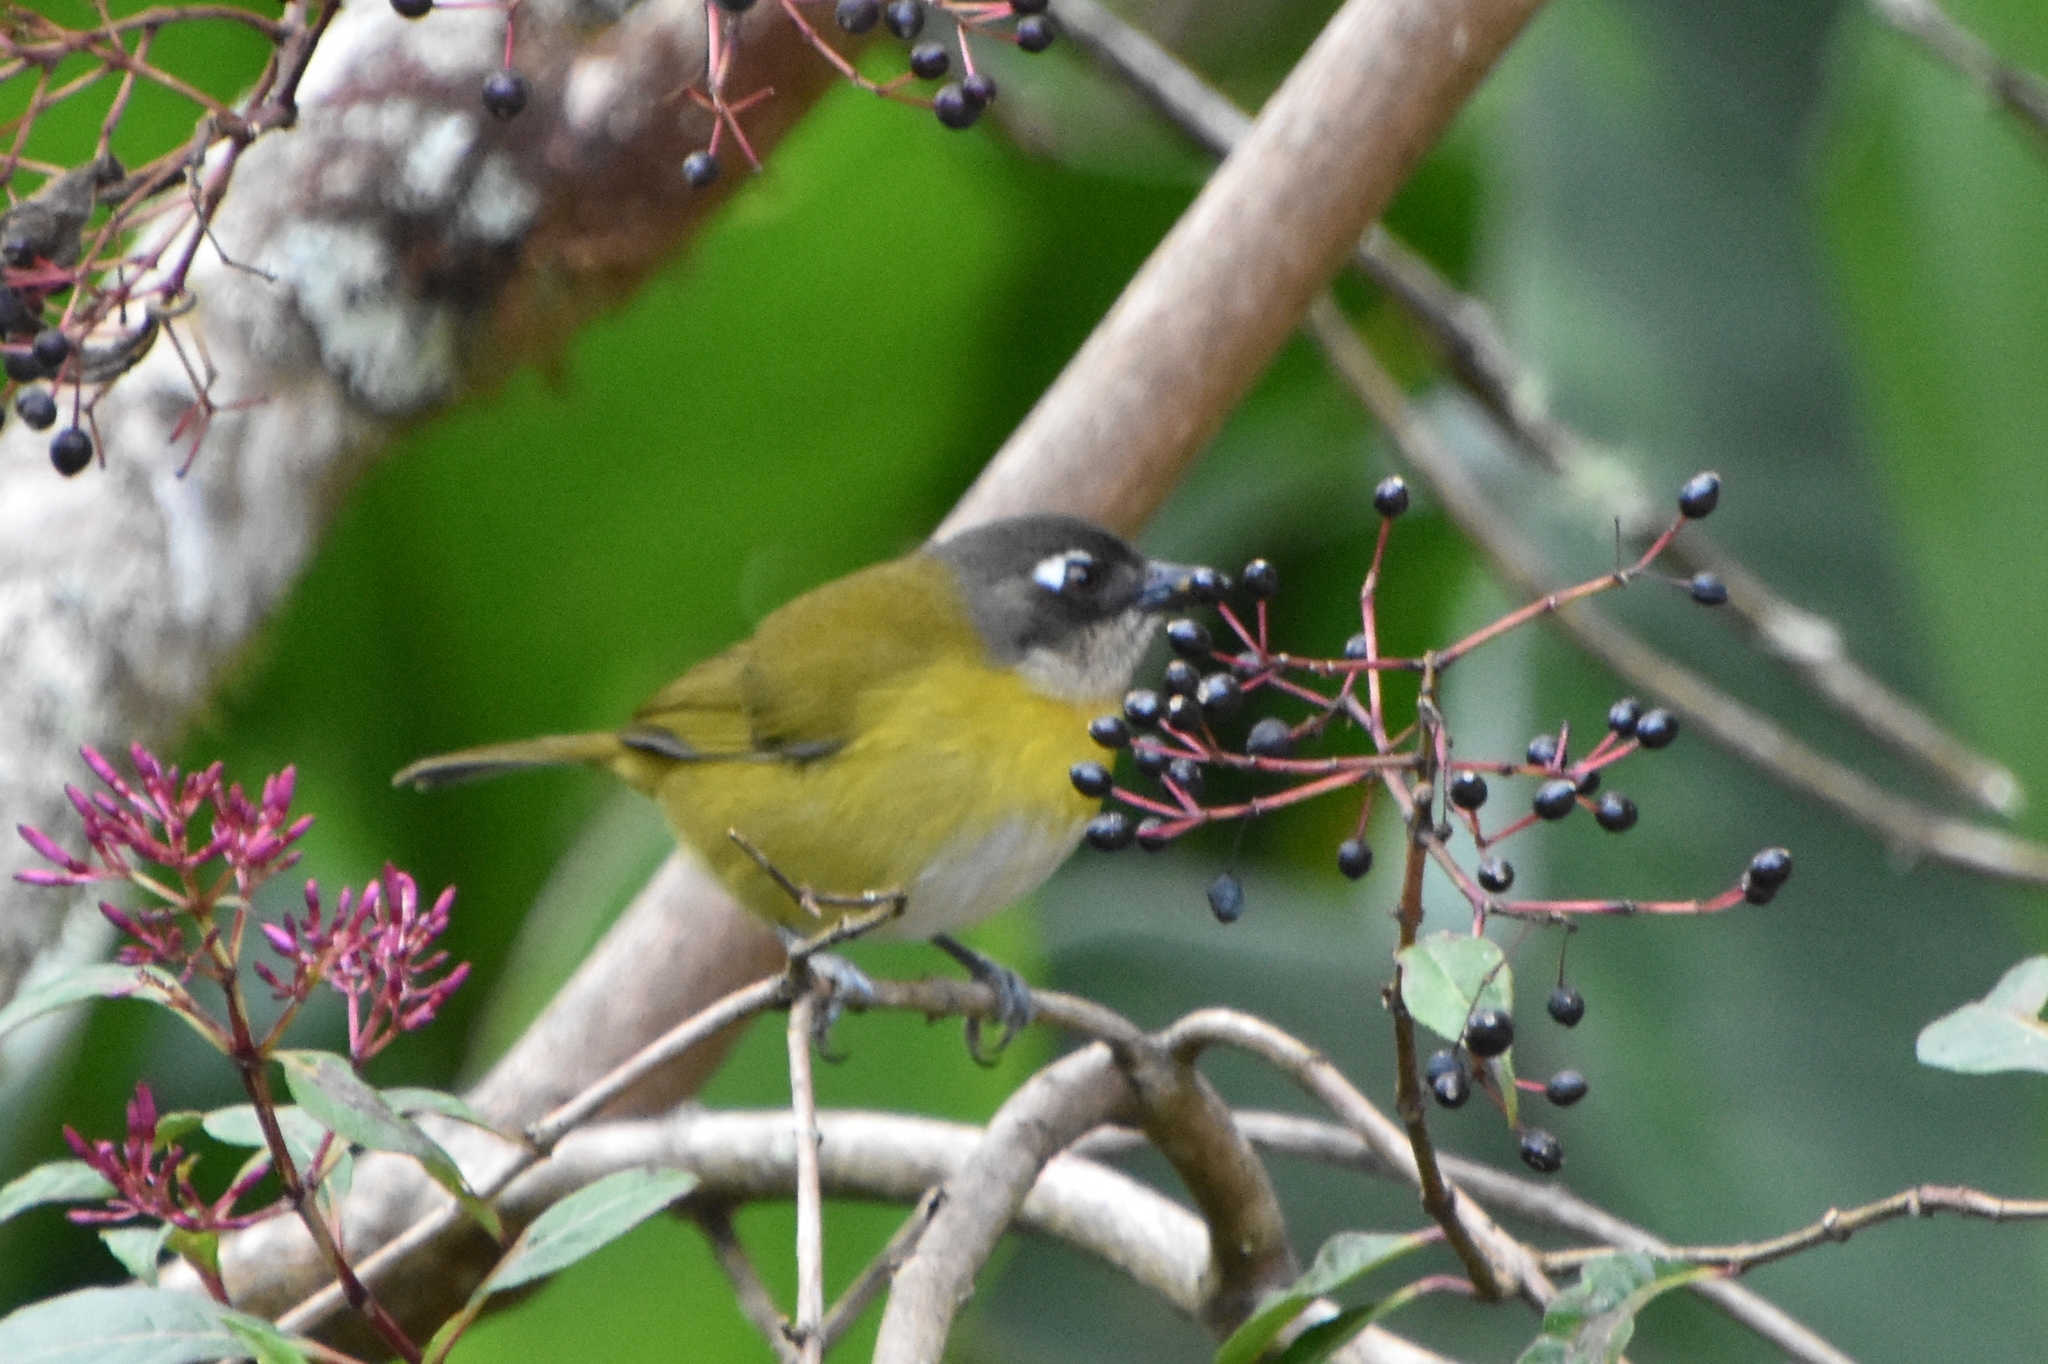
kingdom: Animalia
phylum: Chordata
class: Aves
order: Passeriformes
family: Passerellidae
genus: Chlorospingus
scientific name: Chlorospingus flavopectus
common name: Common chlorospingus
